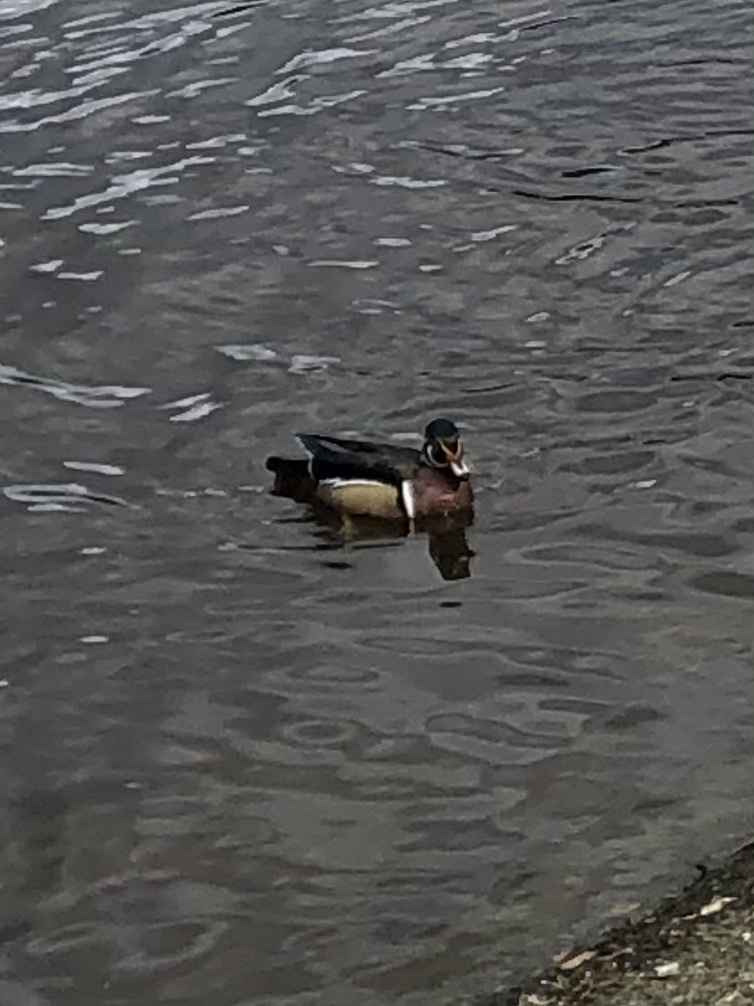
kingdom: Animalia
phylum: Chordata
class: Aves
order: Anseriformes
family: Anatidae
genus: Aix
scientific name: Aix sponsa
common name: Wood duck
